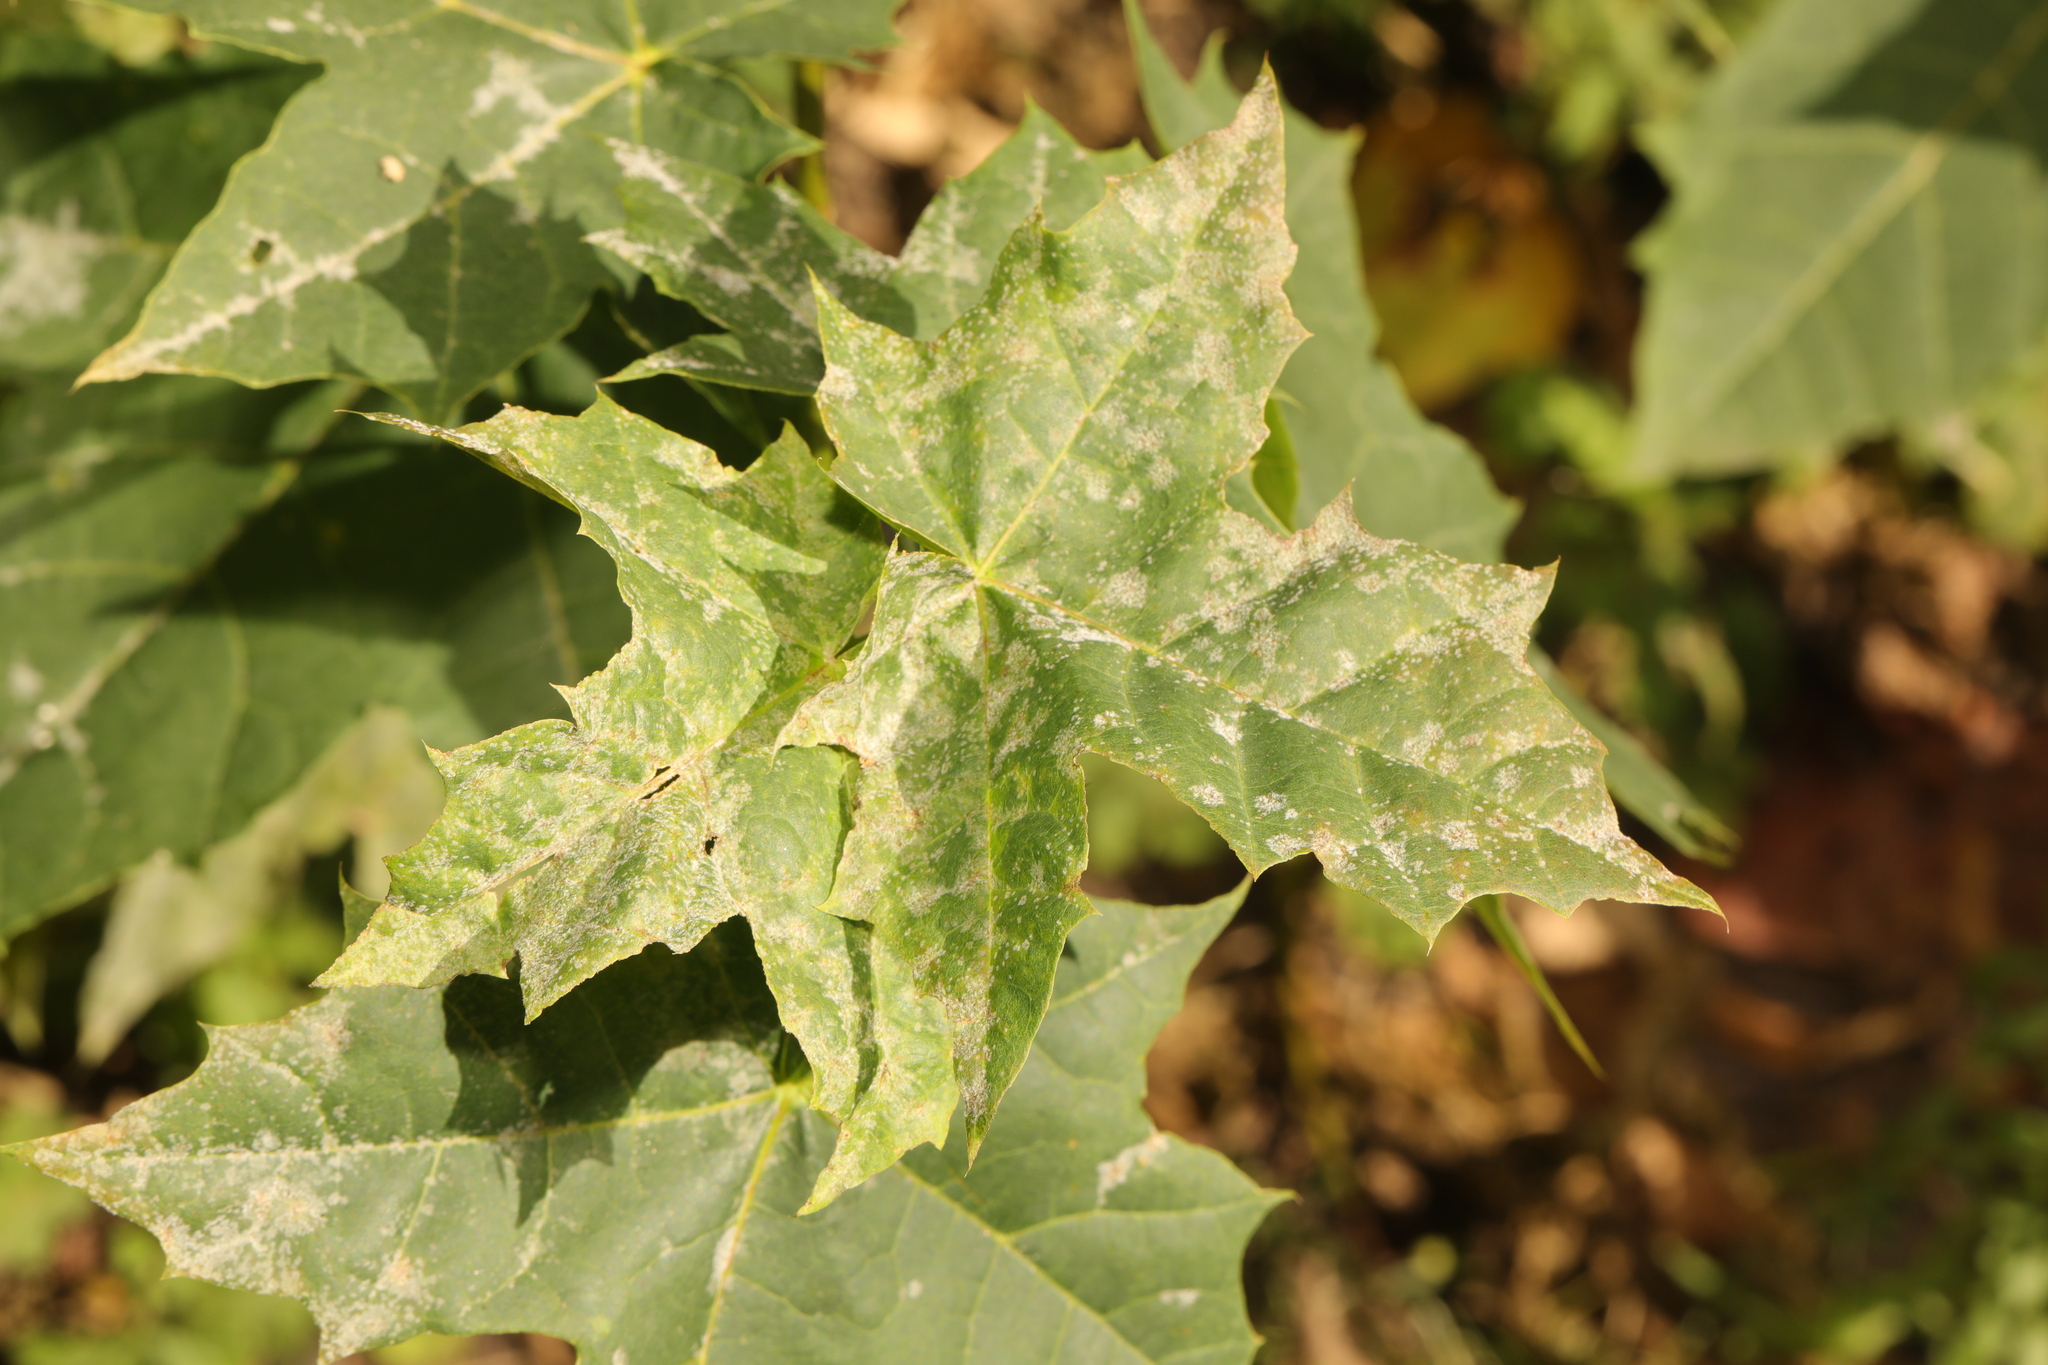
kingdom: Fungi
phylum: Ascomycota
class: Leotiomycetes
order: Helotiales
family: Erysiphaceae
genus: Sawadaea
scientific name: Sawadaea tulasnei
